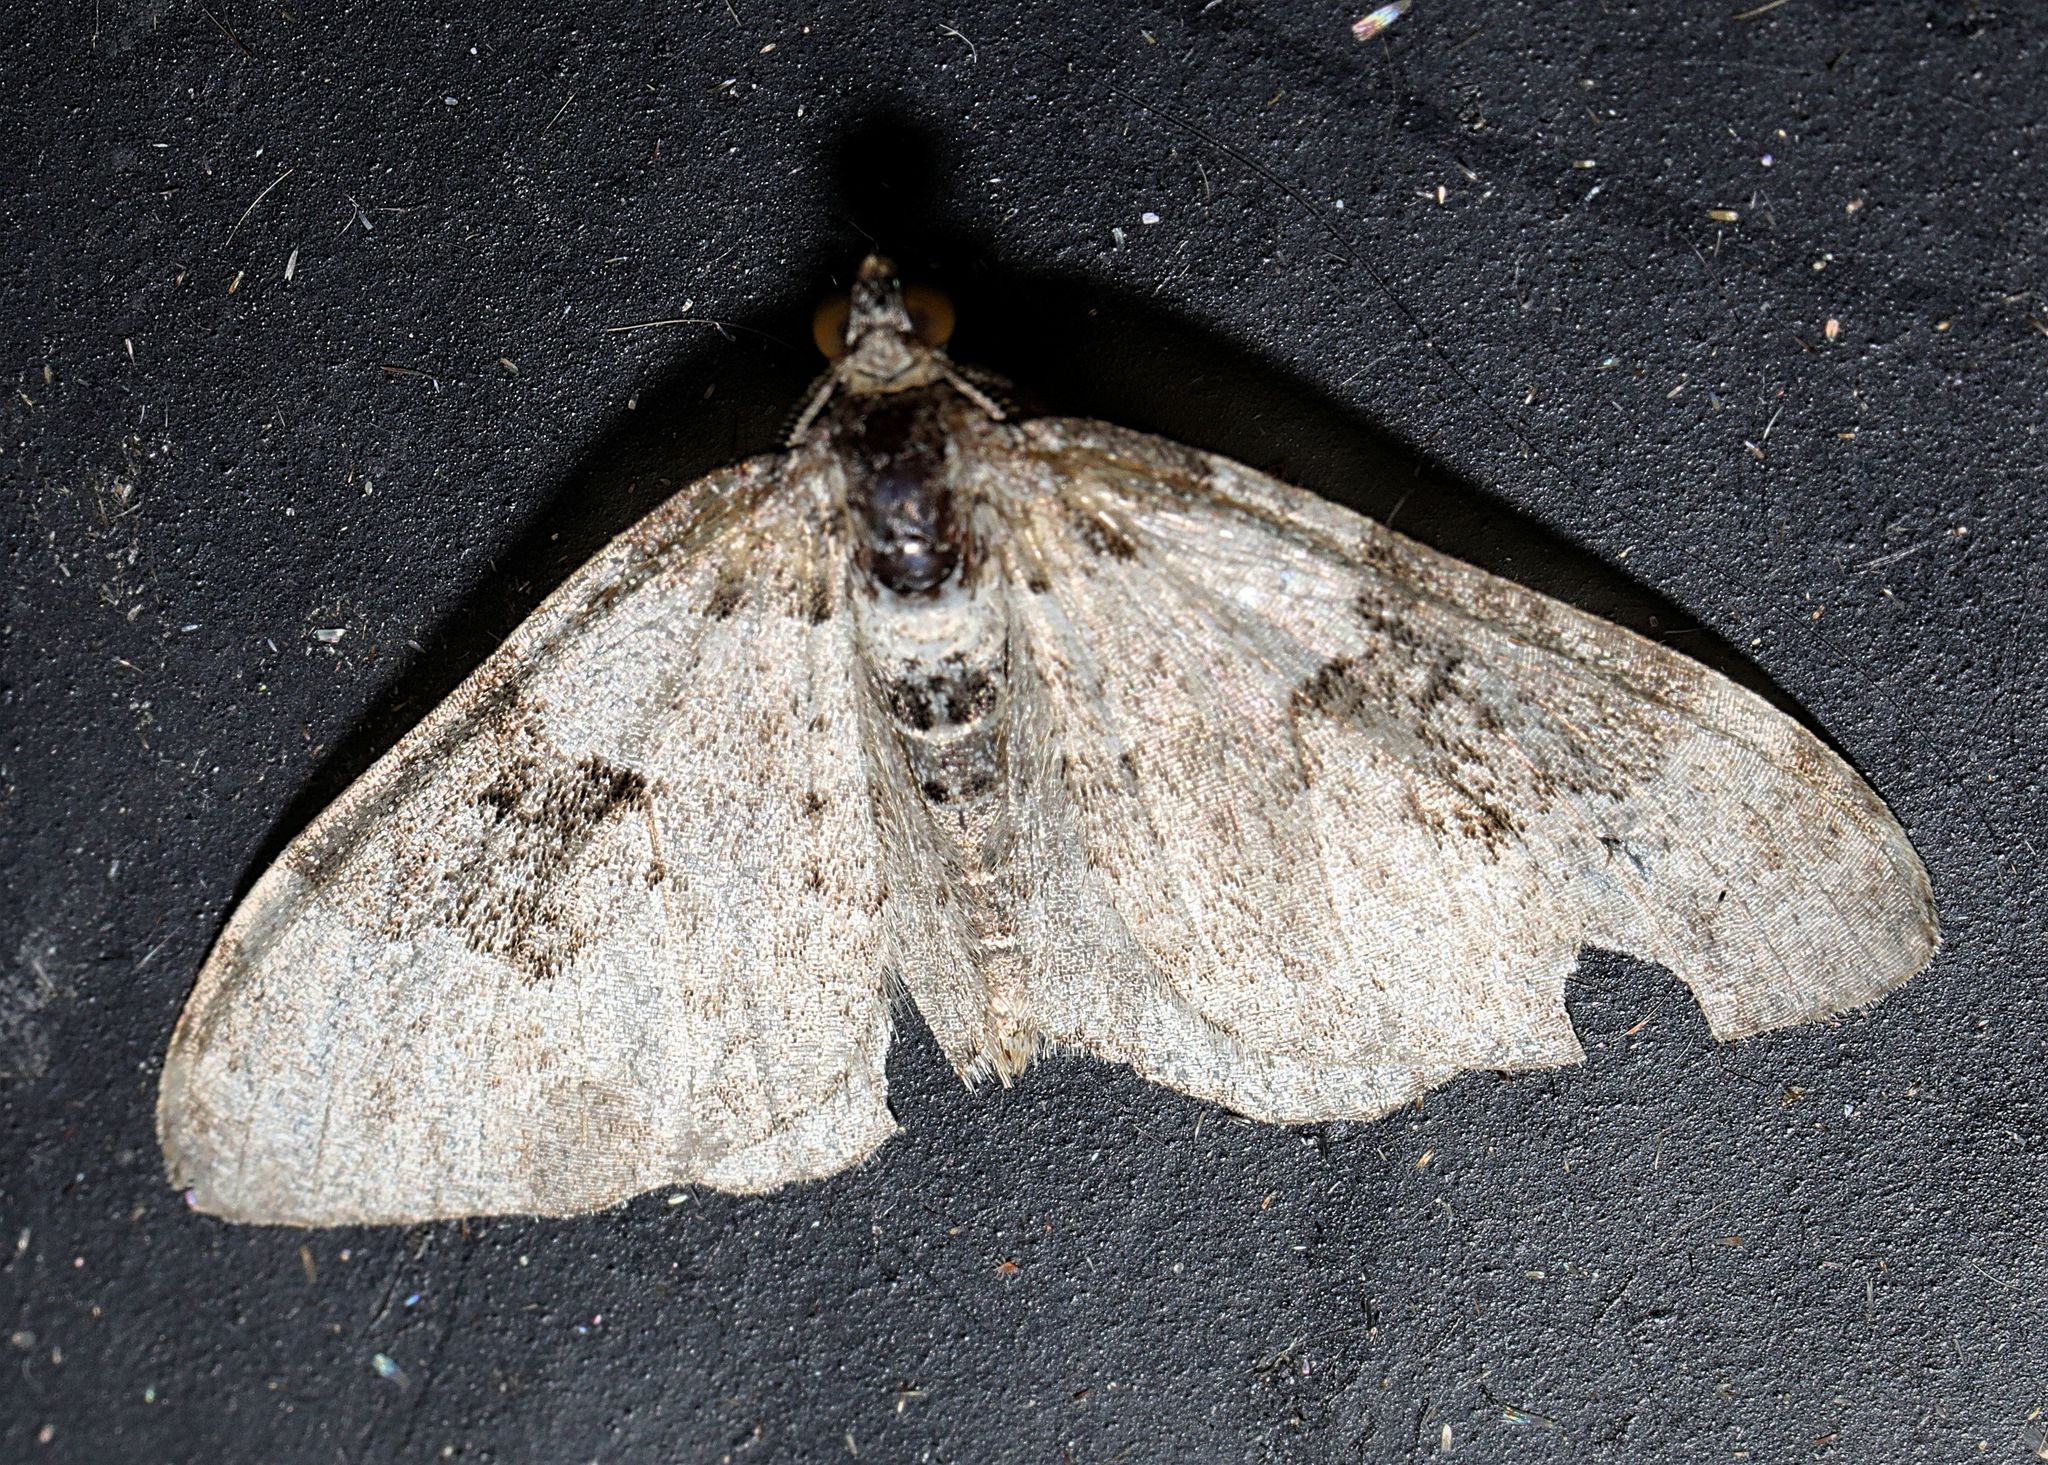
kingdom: Animalia
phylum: Arthropoda
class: Insecta
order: Lepidoptera
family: Geometridae
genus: Xanthorhoe
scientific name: Xanthorhoe fluctuata
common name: Garden carpet
